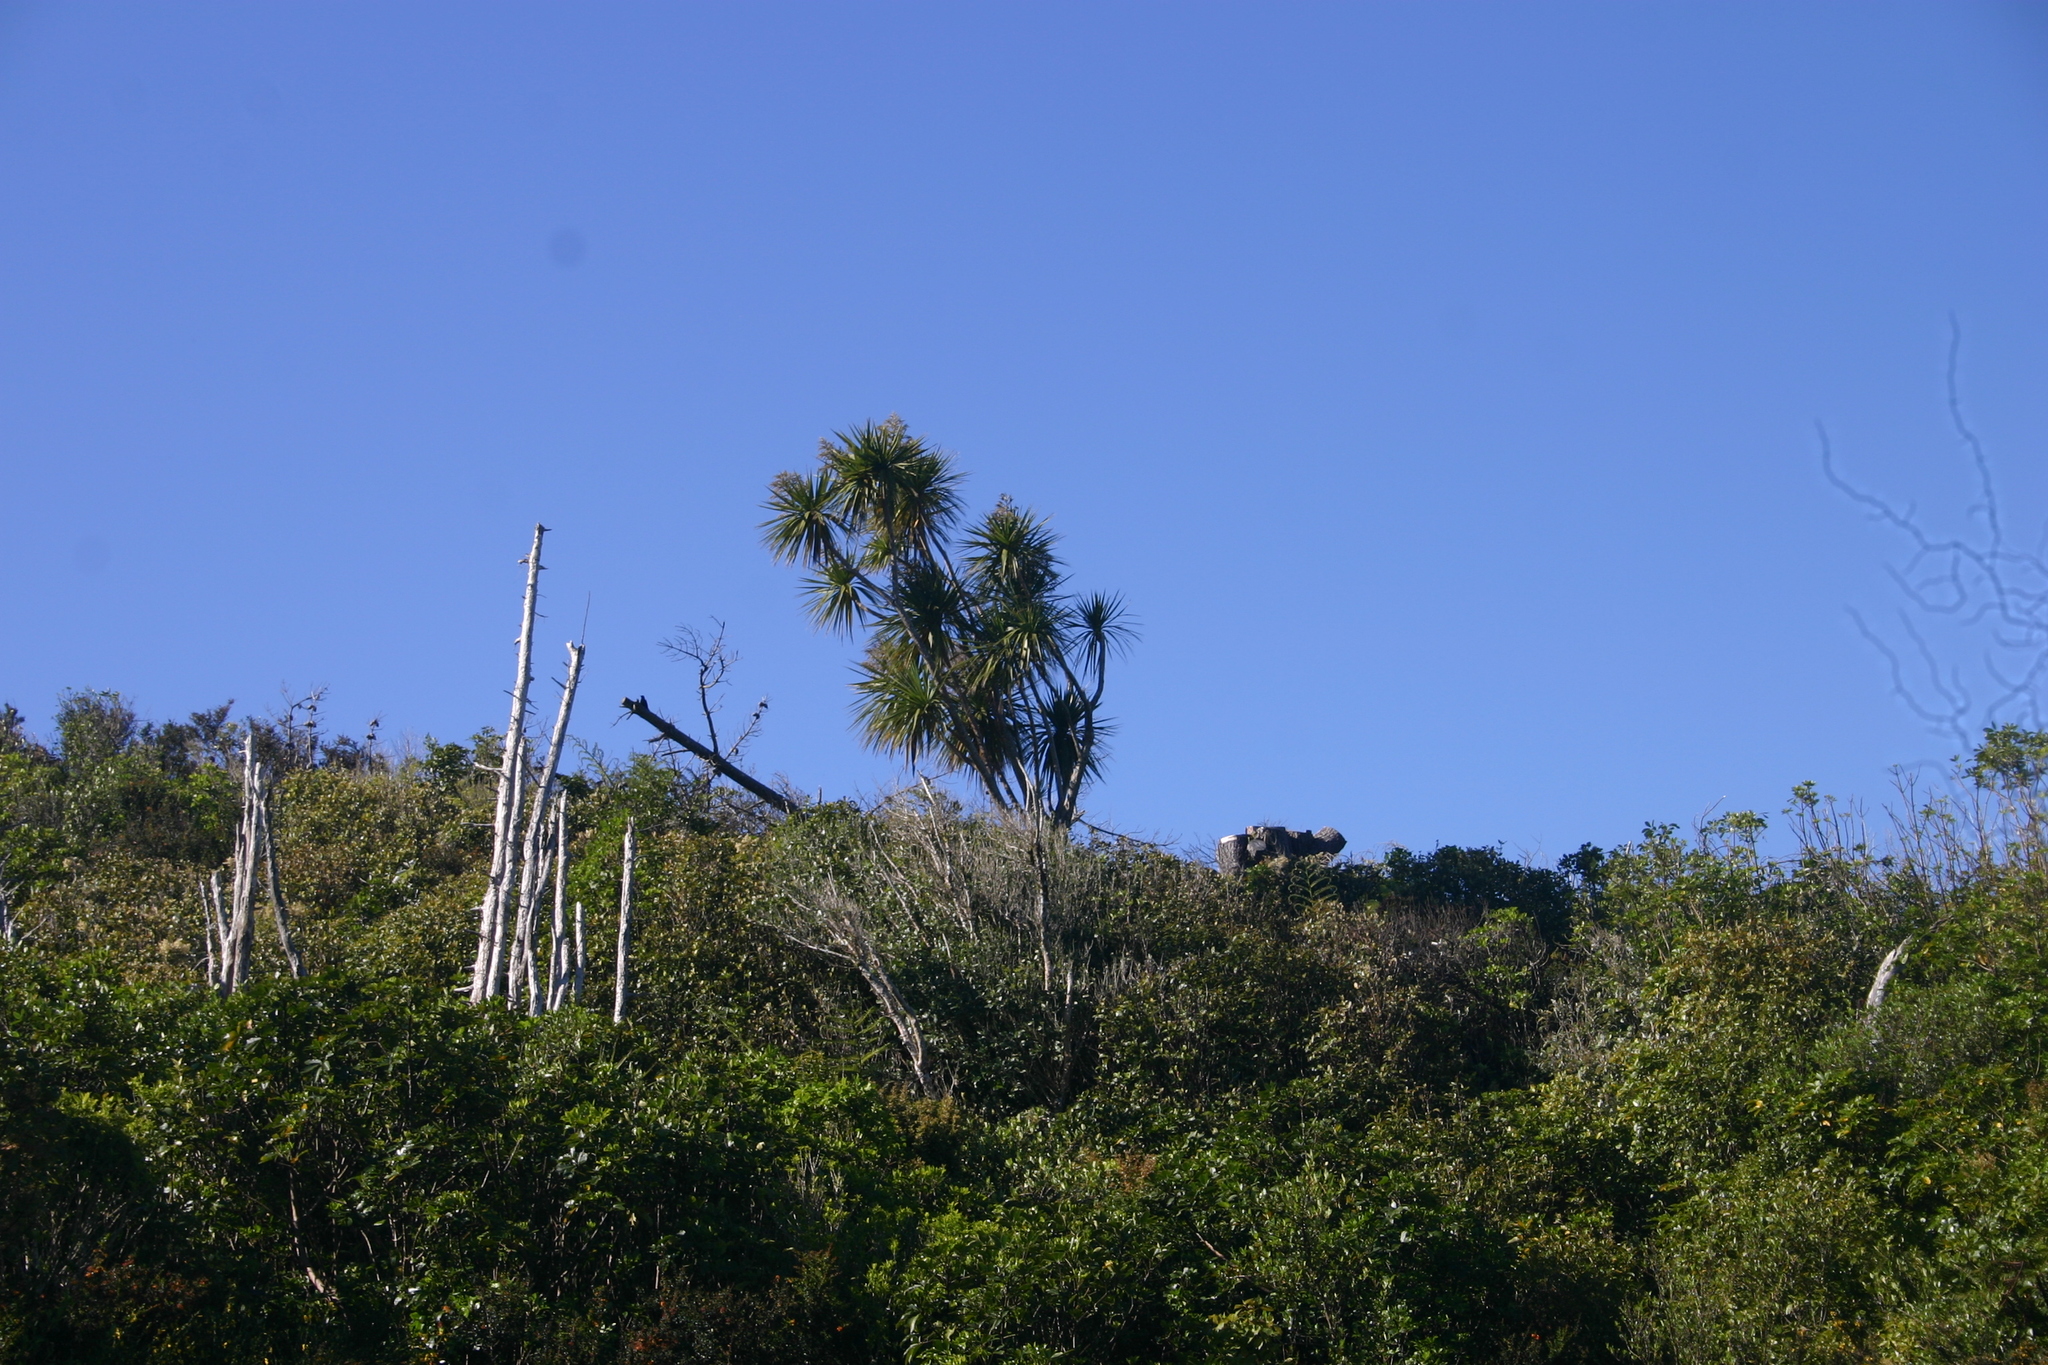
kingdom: Plantae
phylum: Tracheophyta
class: Liliopsida
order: Asparagales
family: Asparagaceae
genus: Cordyline
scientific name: Cordyline australis
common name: Cabbage-palm
